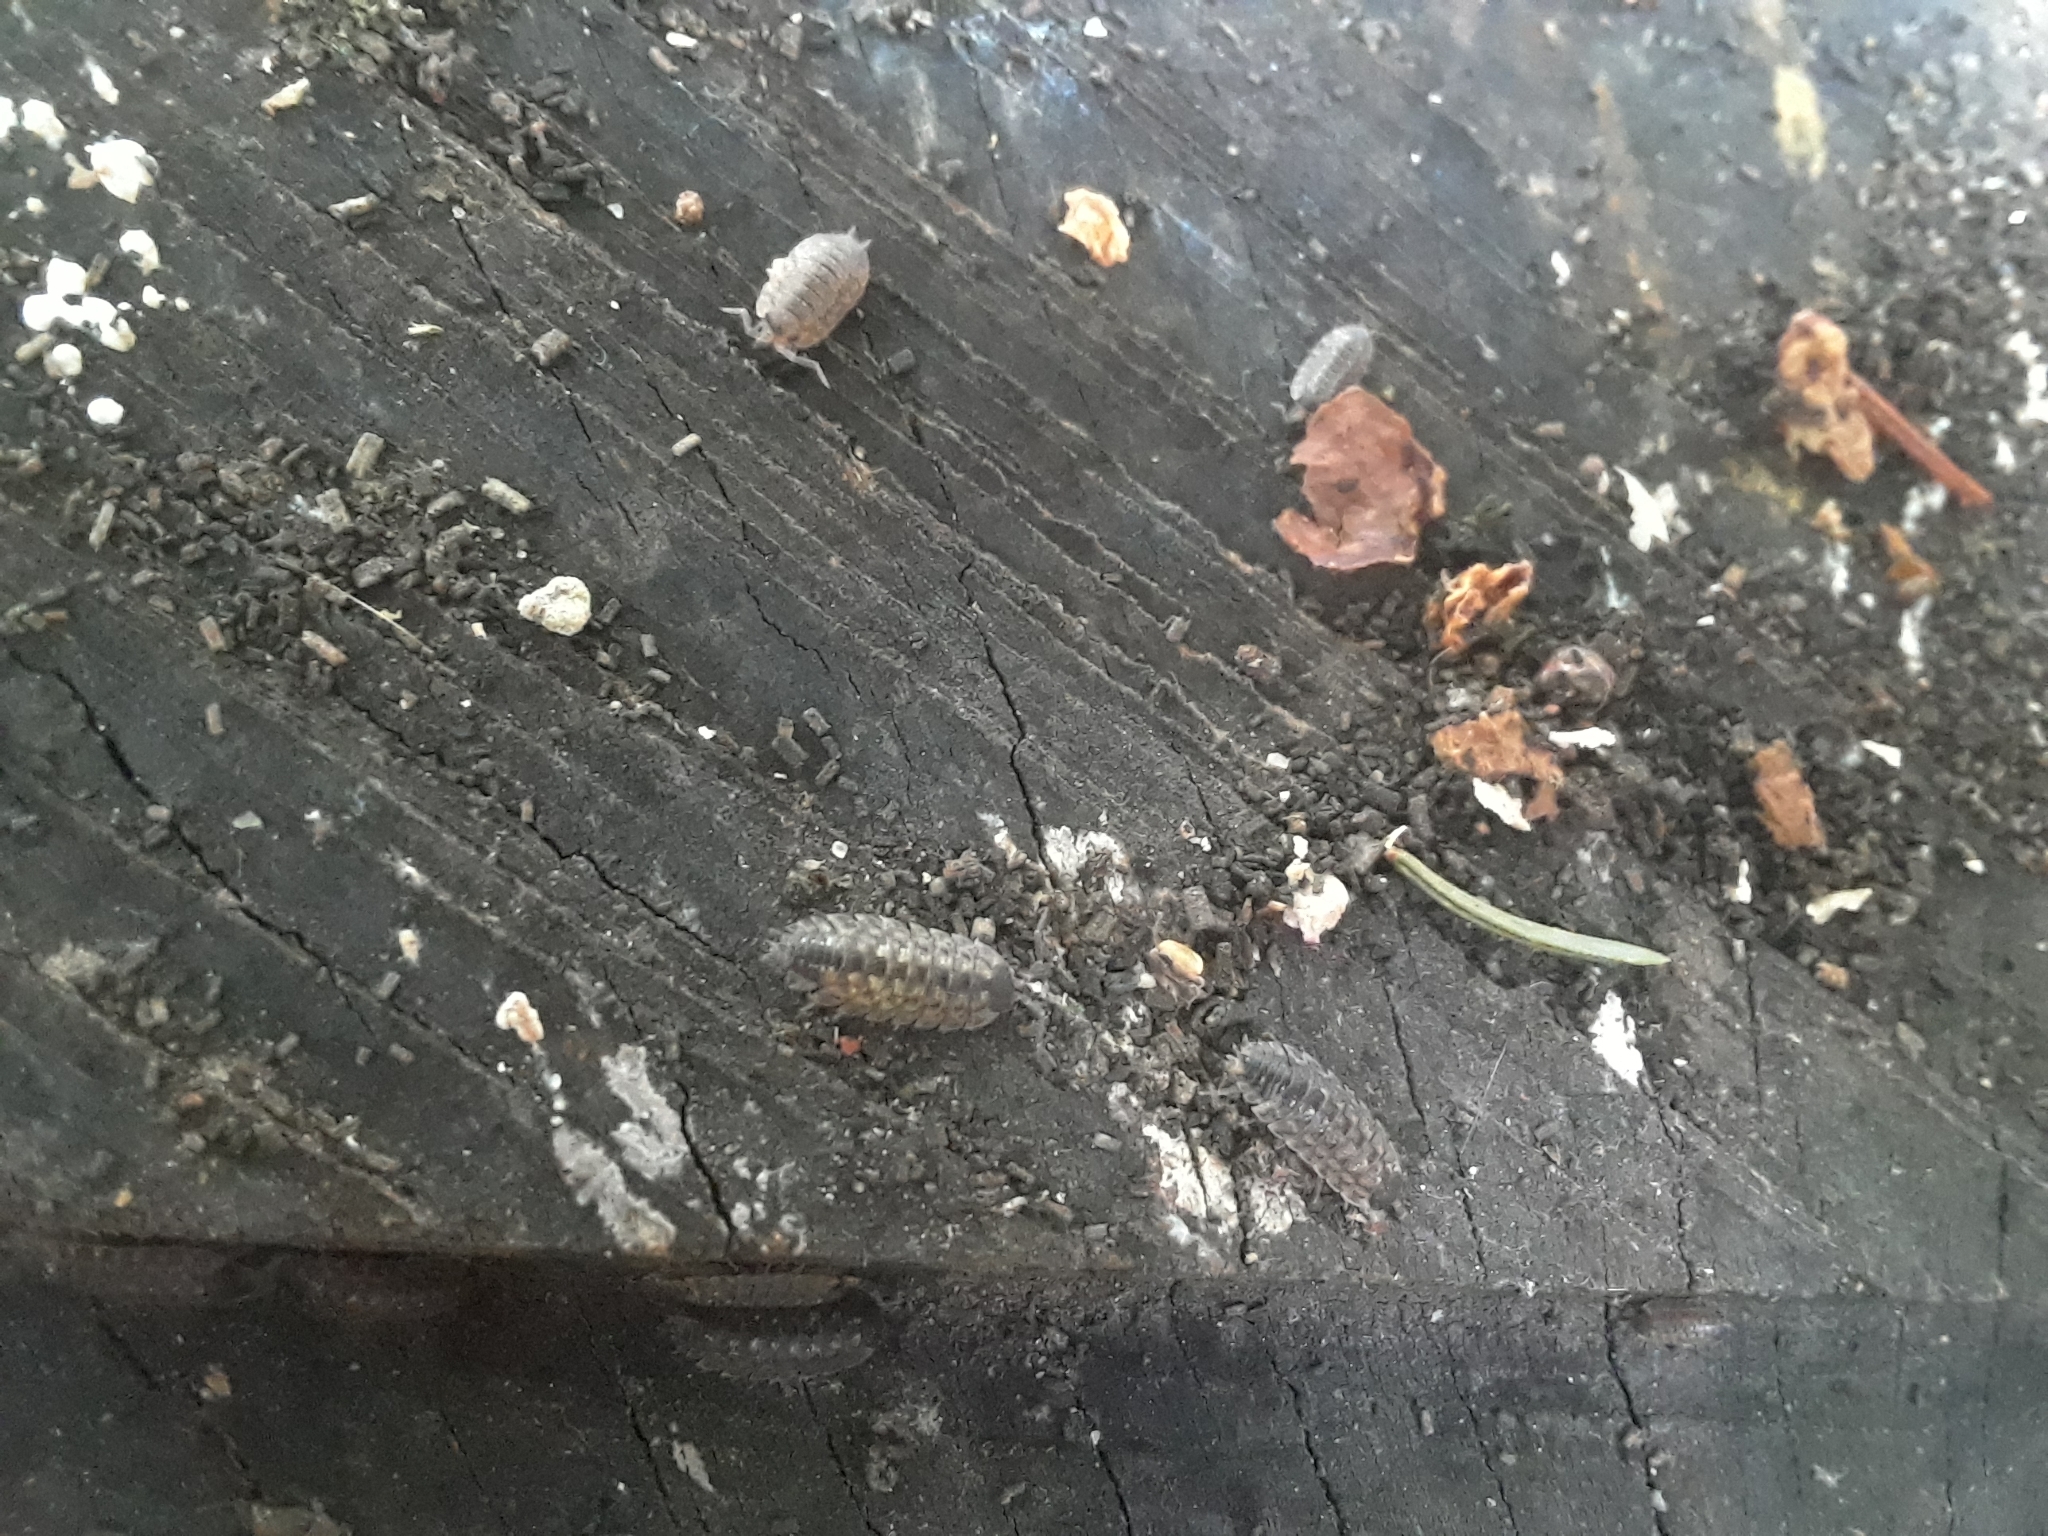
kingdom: Animalia
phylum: Arthropoda
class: Malacostraca
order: Isopoda
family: Porcellionidae
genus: Porcellio
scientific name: Porcellio spinicornis
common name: Painted woodlouse
